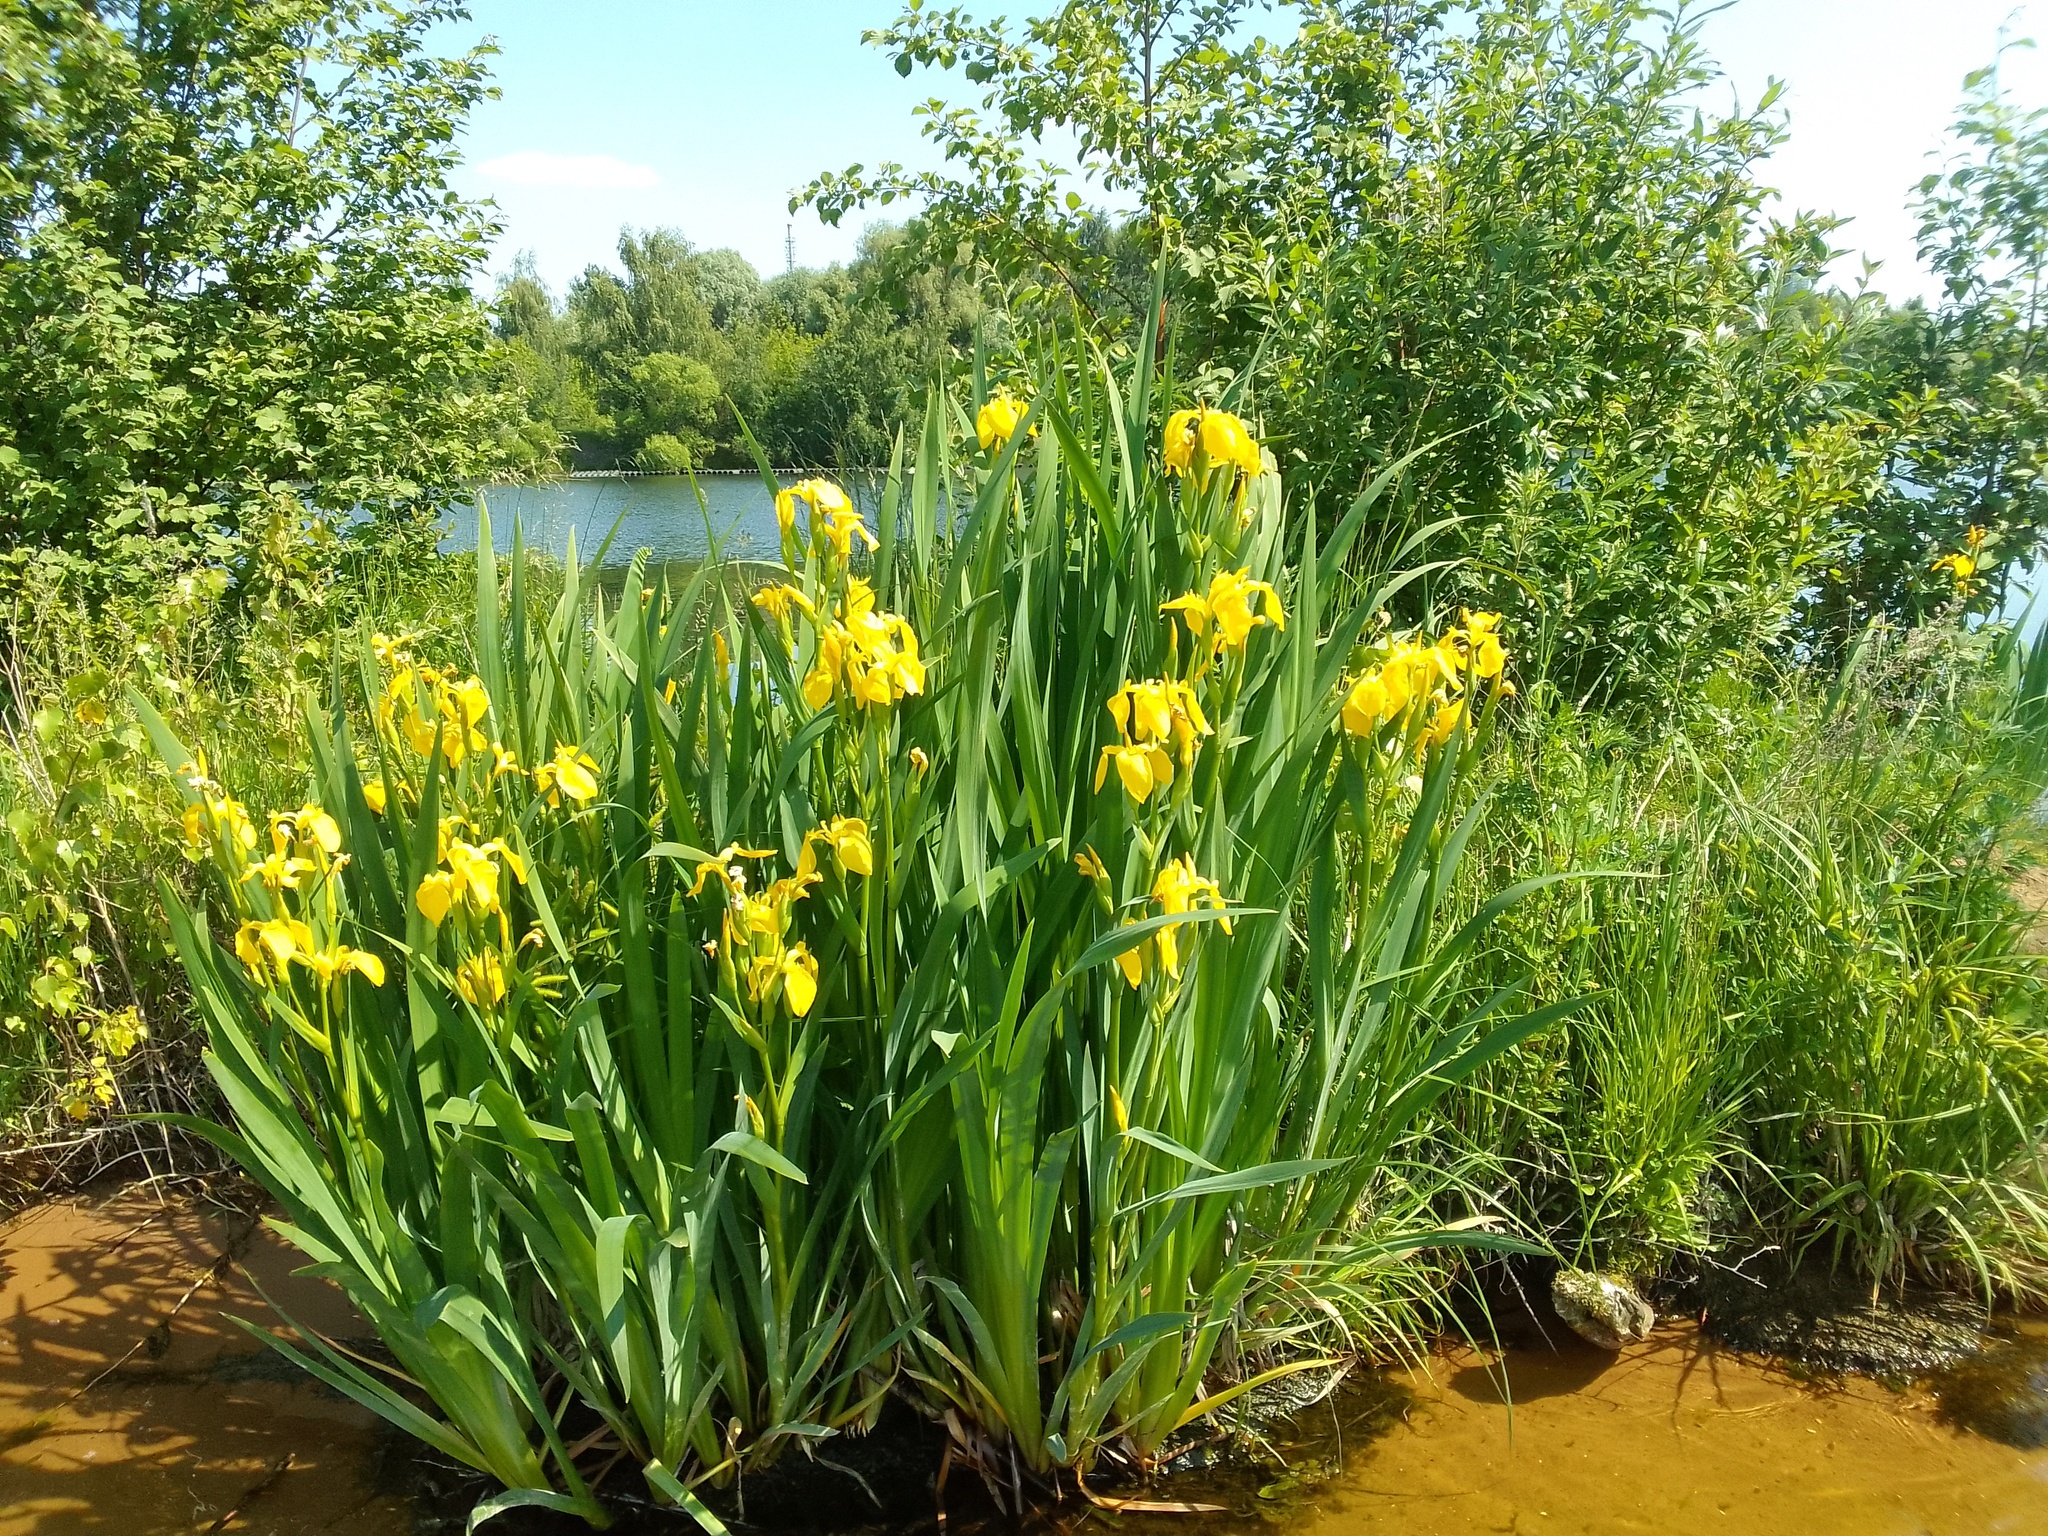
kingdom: Plantae
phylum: Tracheophyta
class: Liliopsida
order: Asparagales
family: Iridaceae
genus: Iris
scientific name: Iris pseudacorus
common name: Yellow flag
